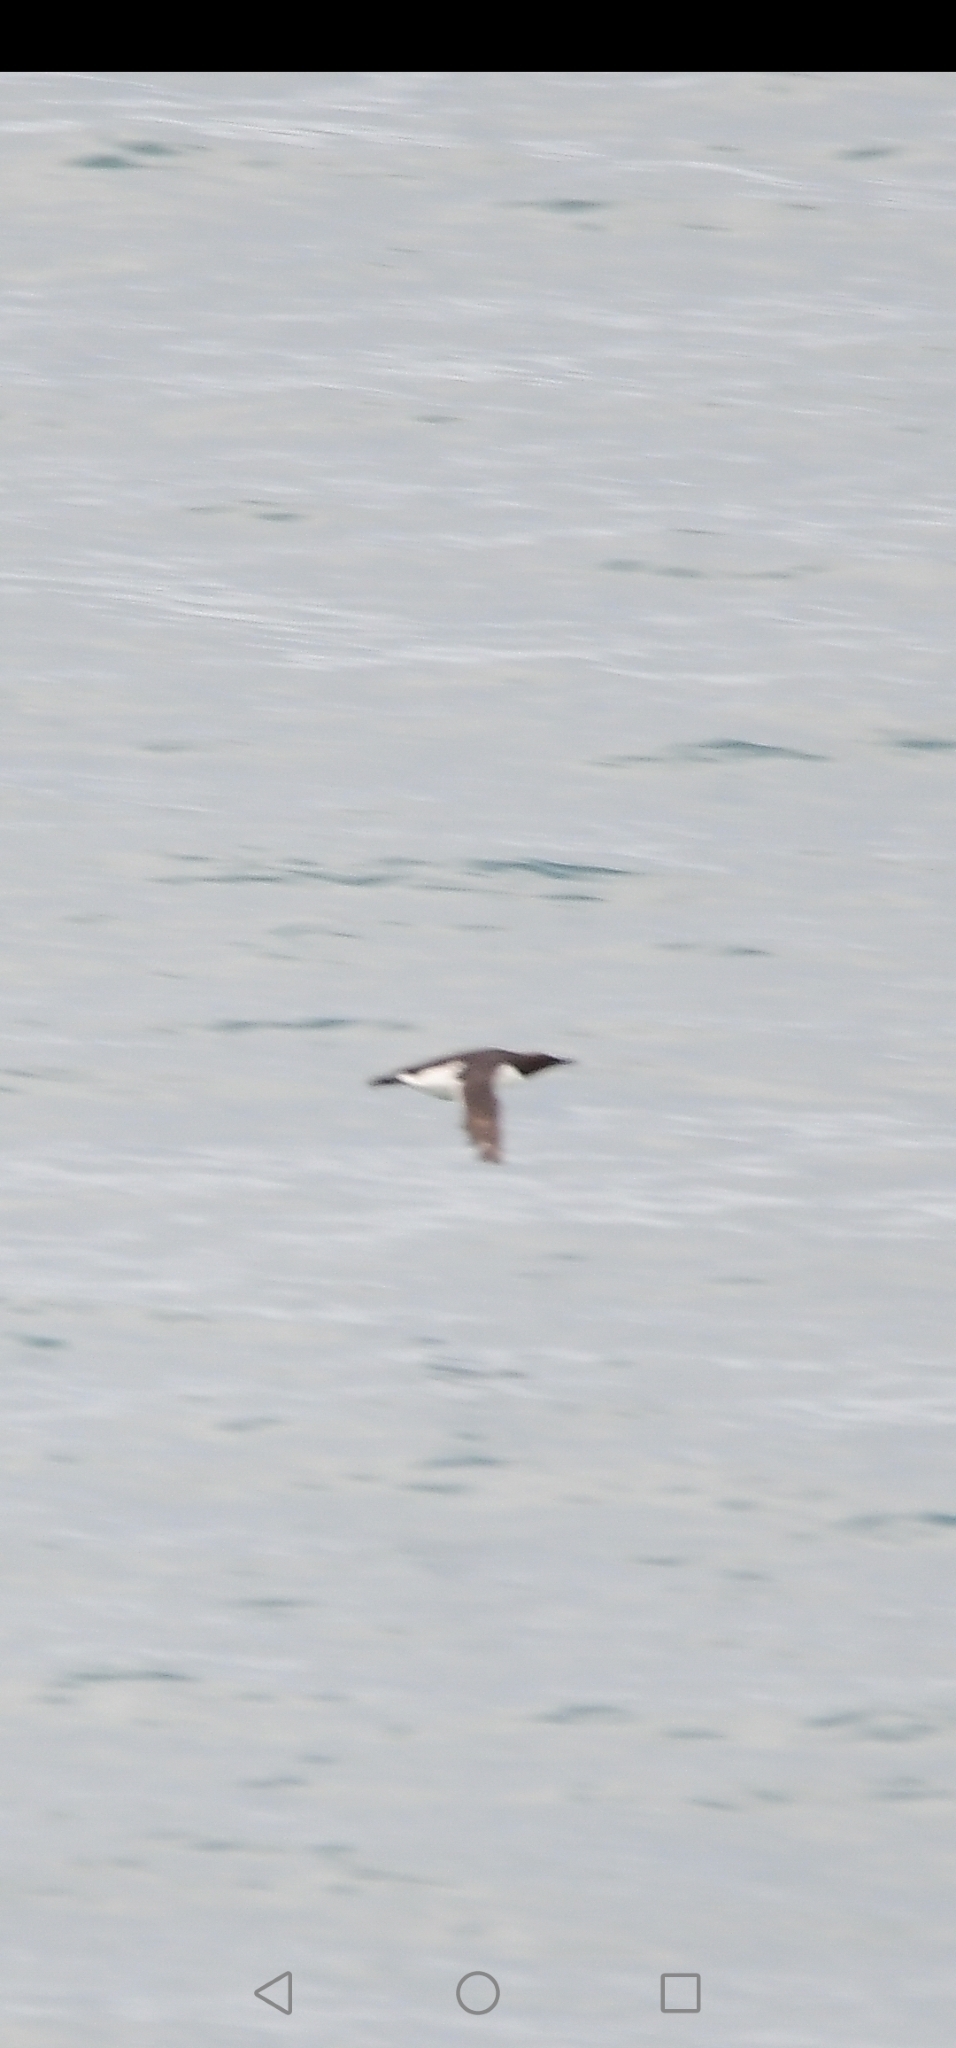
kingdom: Animalia
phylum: Chordata
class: Aves
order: Charadriiformes
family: Alcidae
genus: Uria
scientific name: Uria aalge
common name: Common murre
